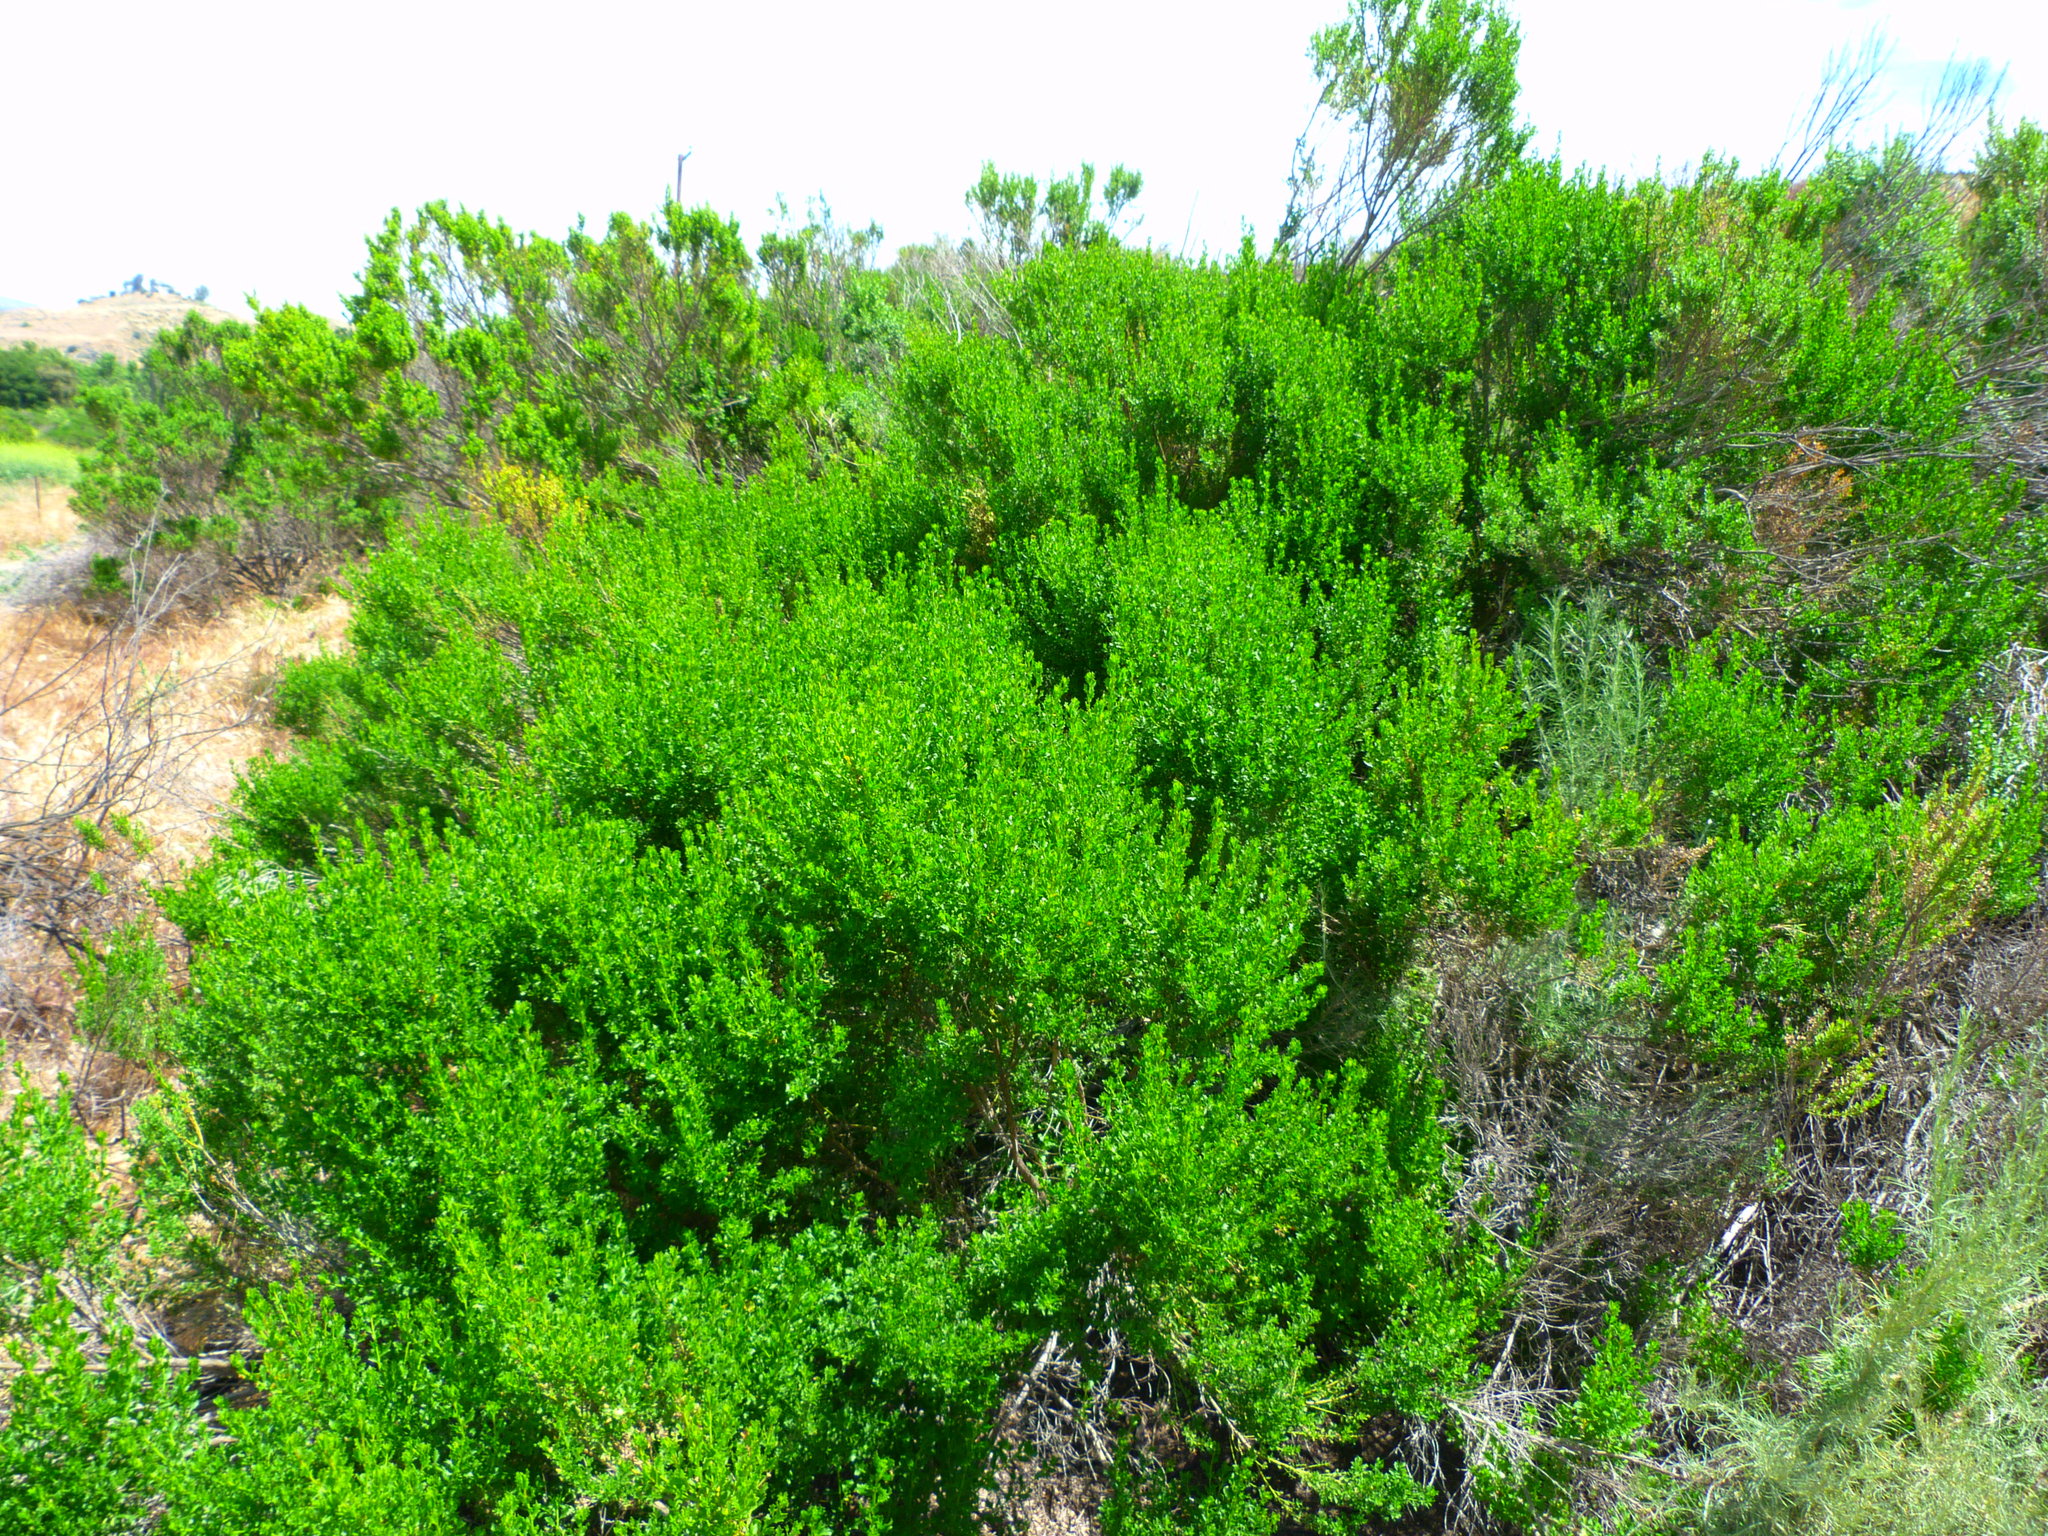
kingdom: Plantae
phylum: Tracheophyta
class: Magnoliopsida
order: Asterales
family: Asteraceae
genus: Baccharis
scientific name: Baccharis pilularis
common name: Coyotebrush
